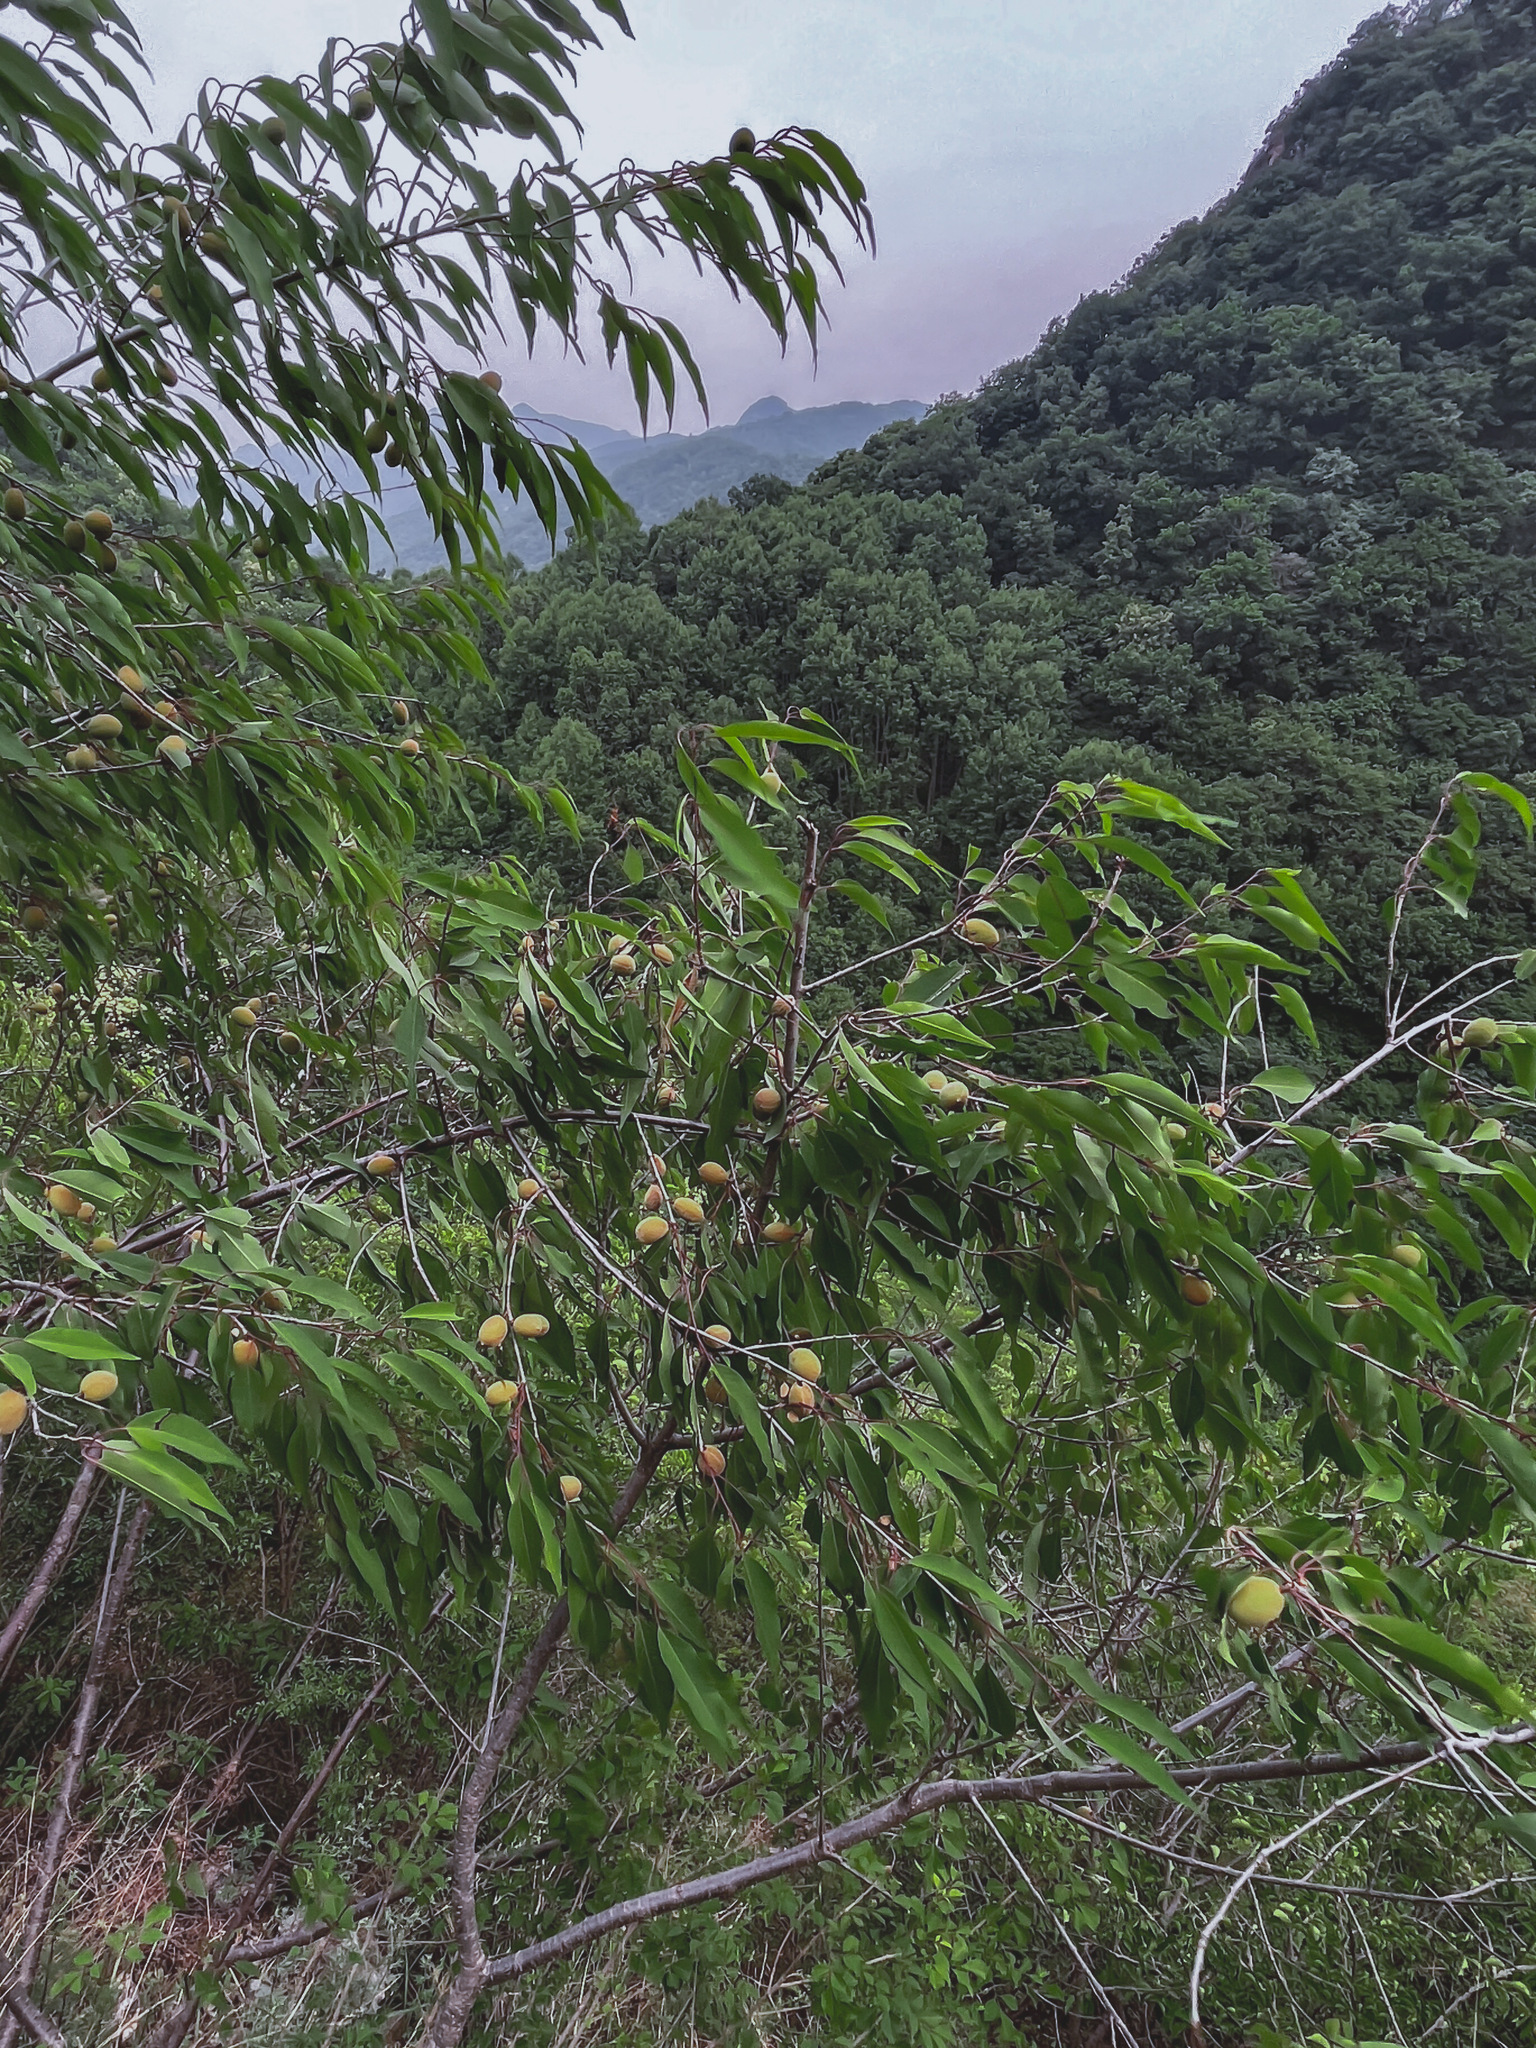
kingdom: Plantae
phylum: Tracheophyta
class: Magnoliopsida
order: Rosales
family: Rosaceae
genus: Prunus
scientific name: Prunus davidiana
